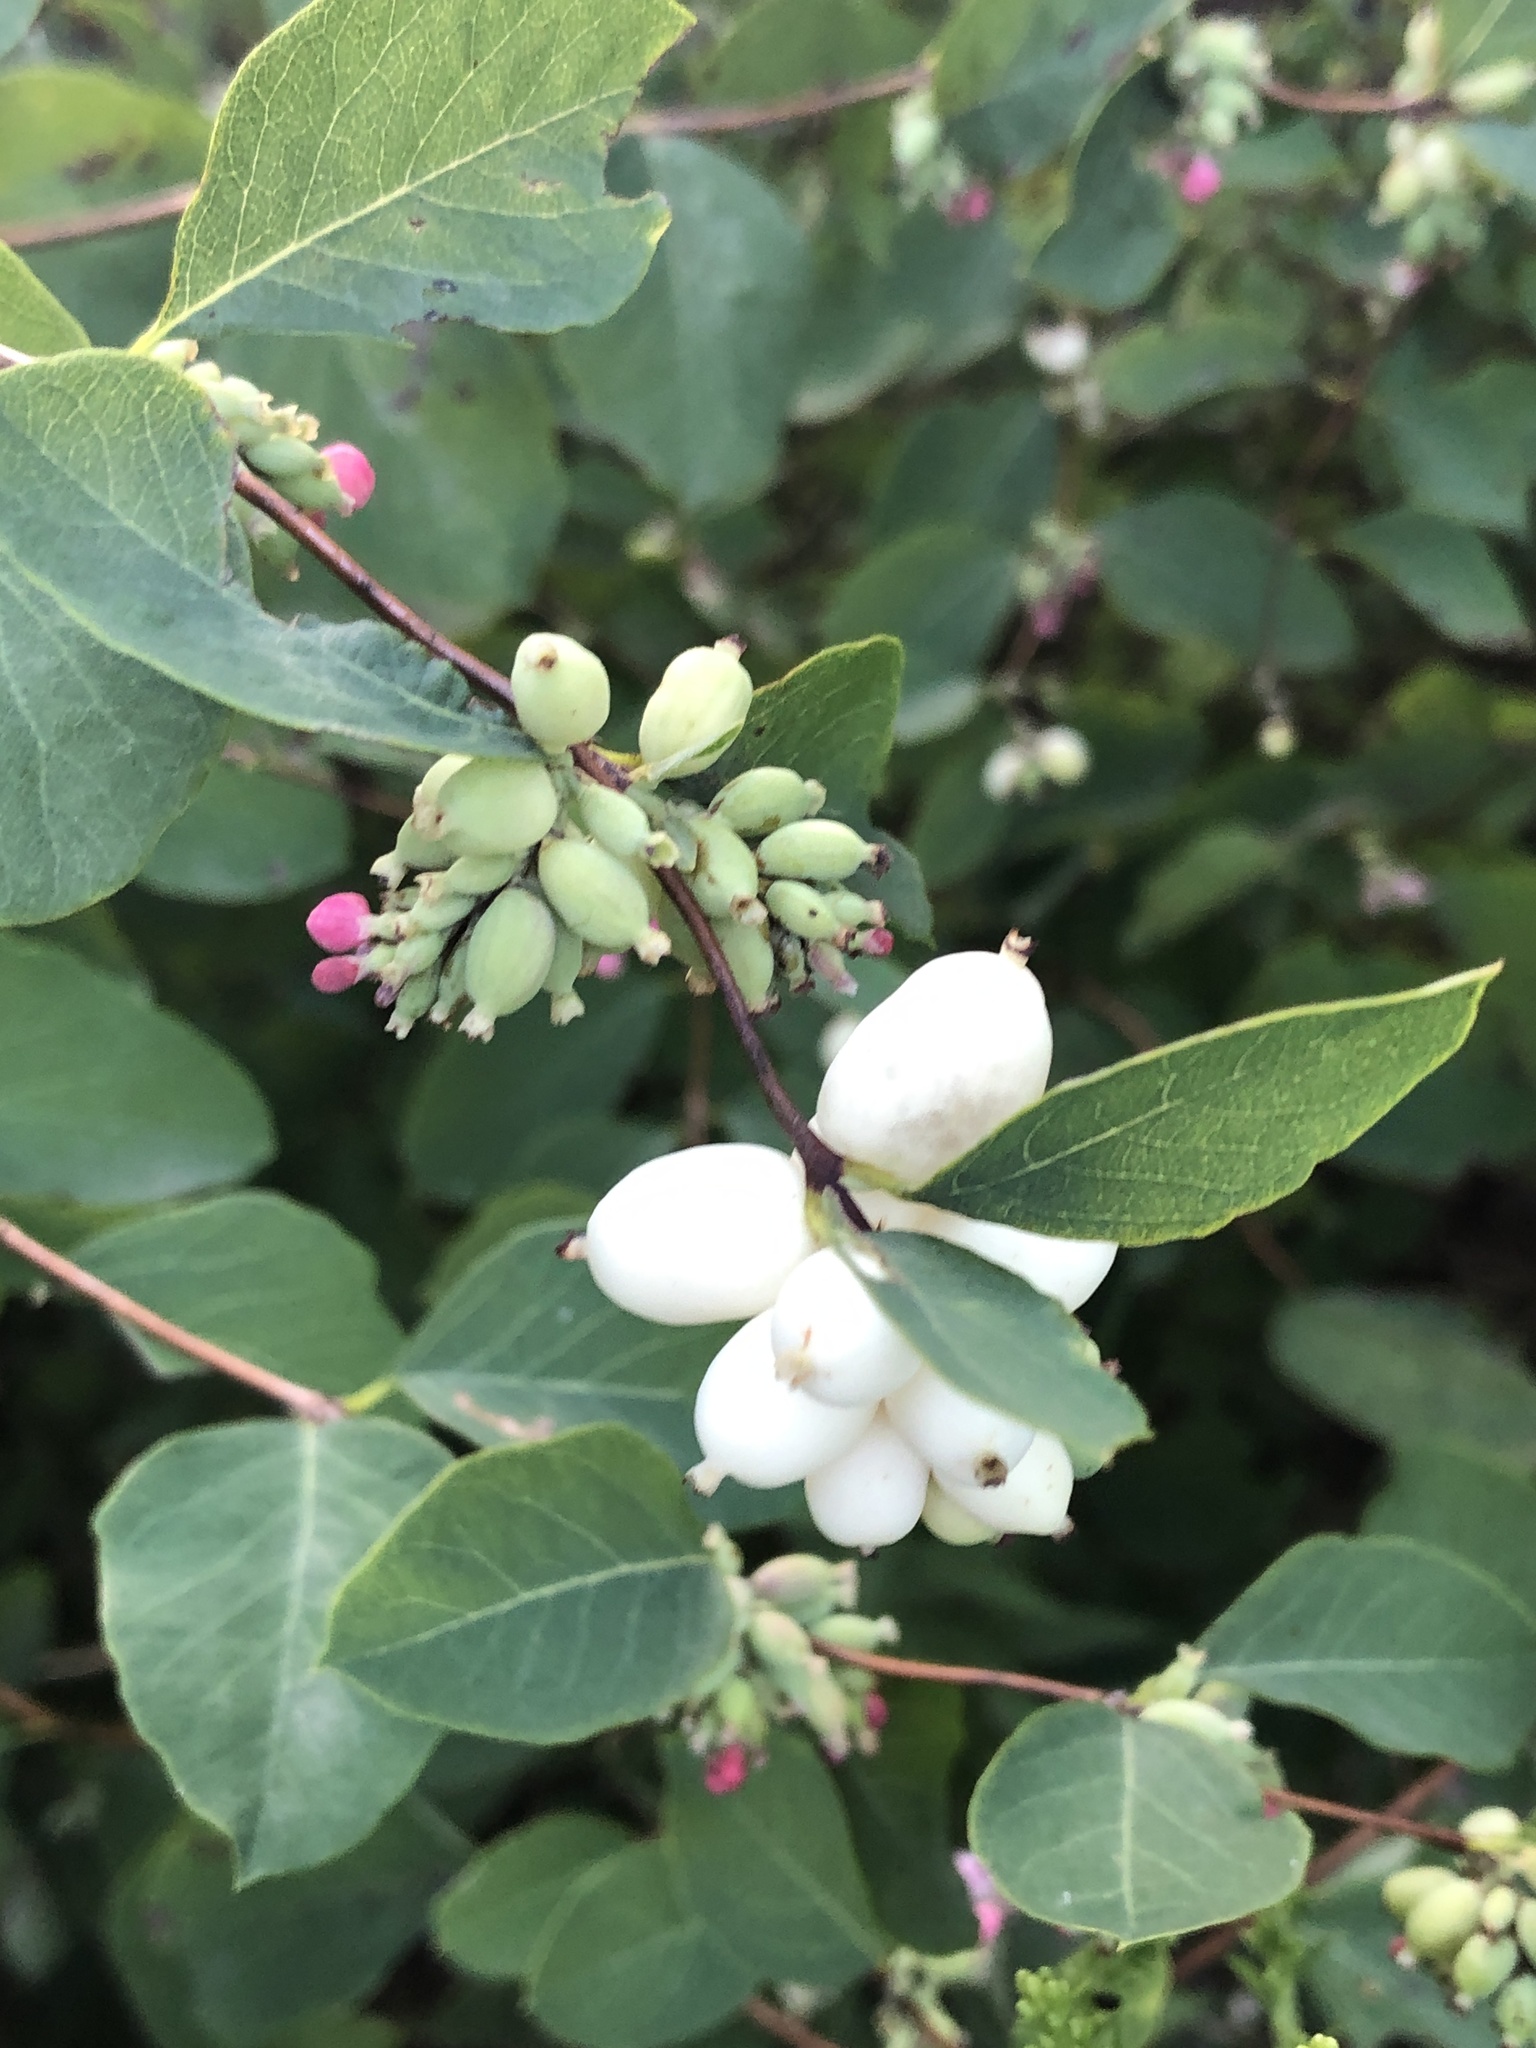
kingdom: Plantae
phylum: Tracheophyta
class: Magnoliopsida
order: Dipsacales
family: Caprifoliaceae
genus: Symphoricarpos
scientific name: Symphoricarpos albus
